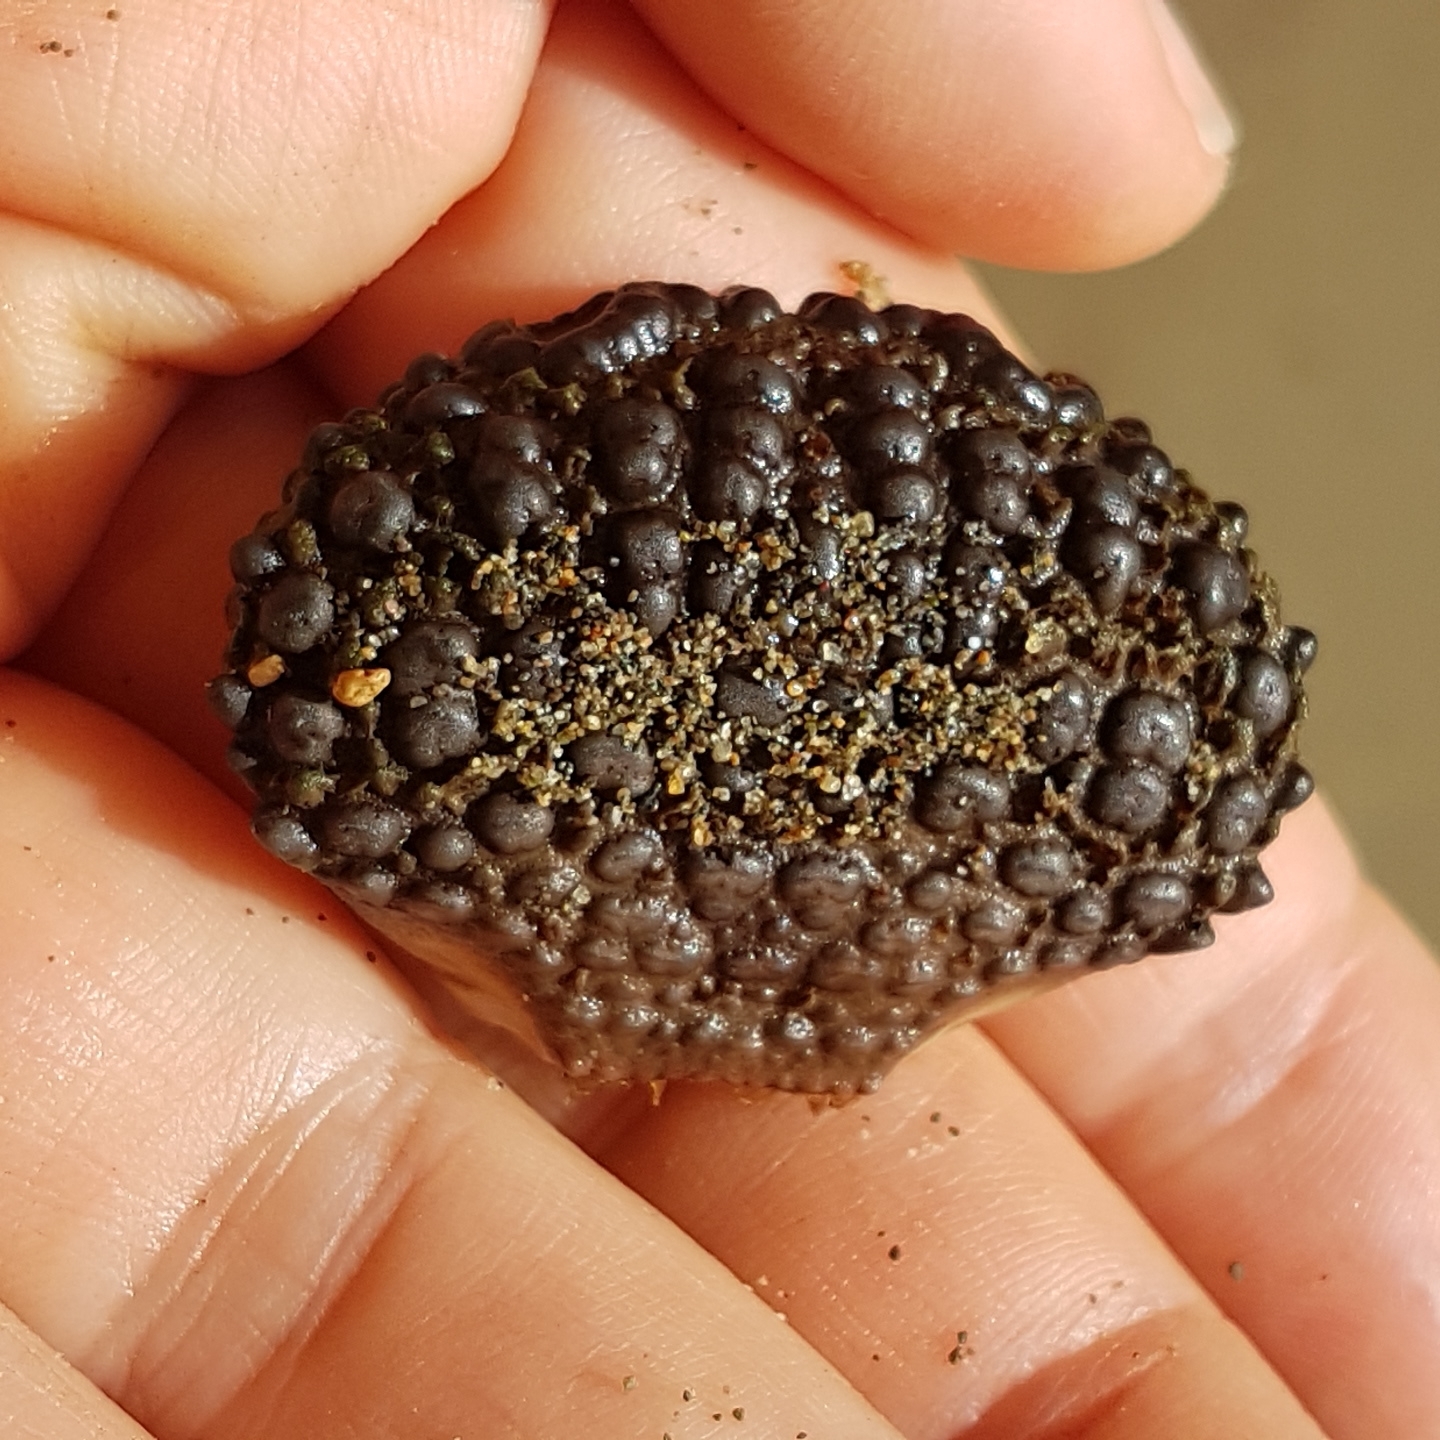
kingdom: Animalia
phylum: Arthropoda
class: Malacostraca
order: Decapoda
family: Dairidae
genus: Daira
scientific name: Daira americana
